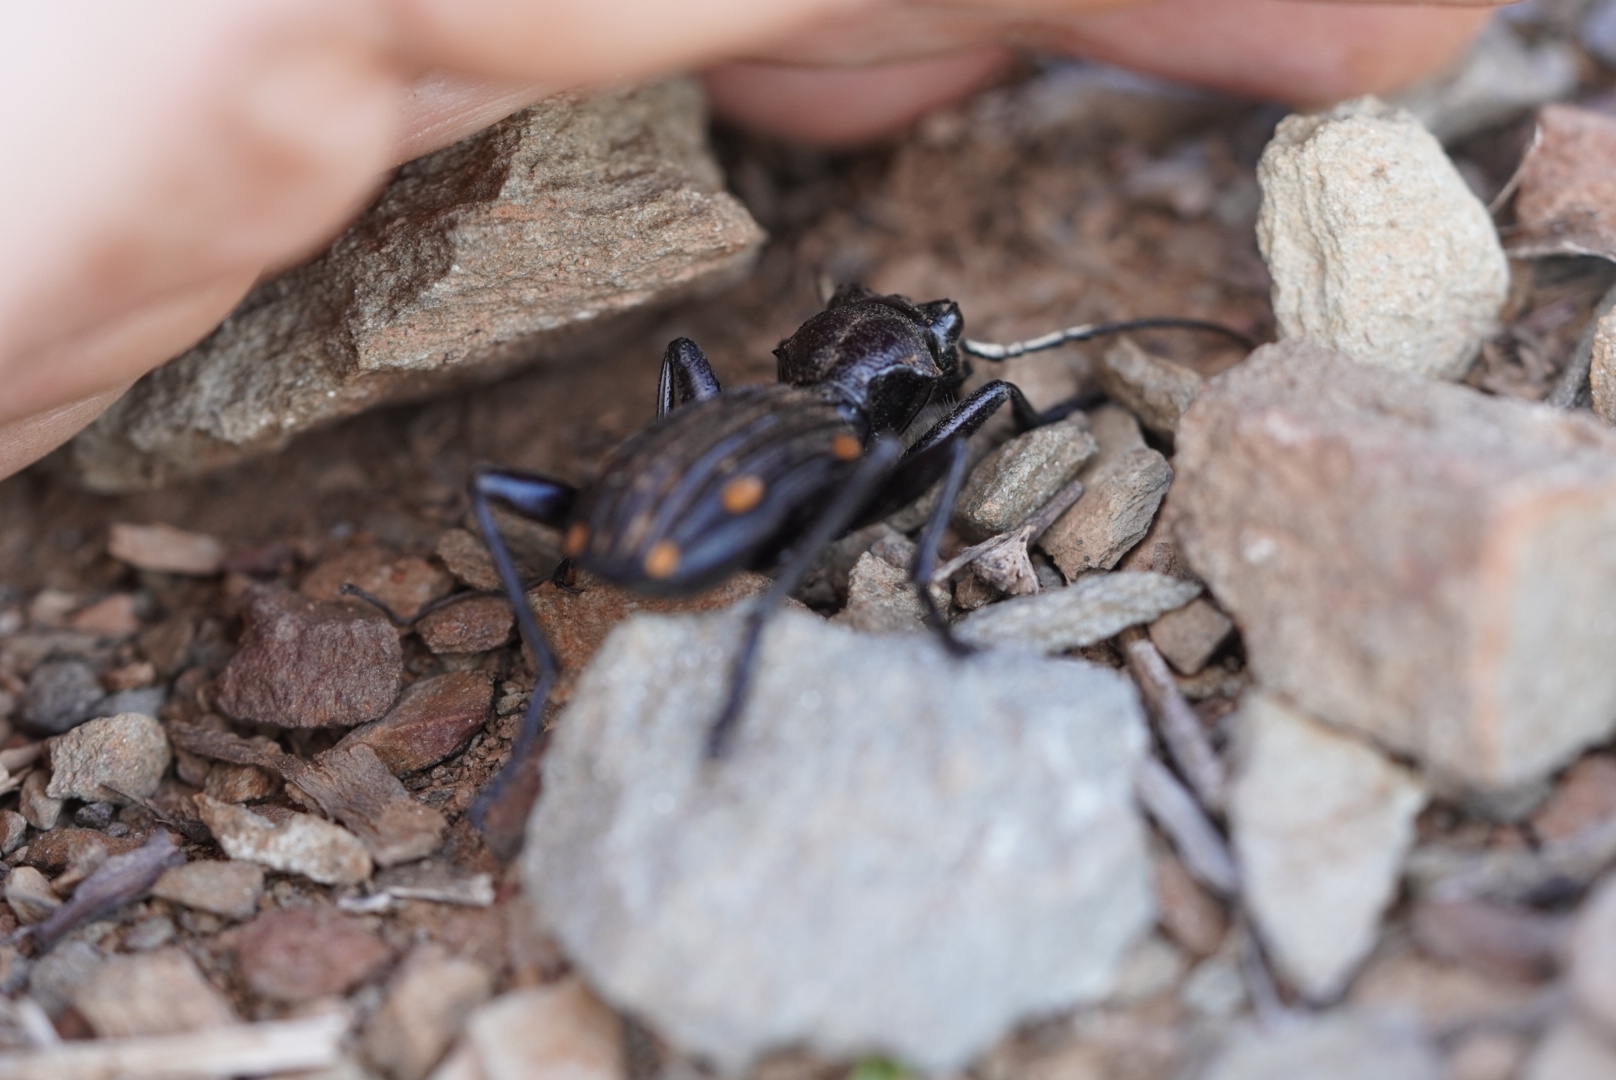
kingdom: Animalia
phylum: Arthropoda
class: Insecta
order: Coleoptera
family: Carabidae
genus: Anthia
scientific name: Anthia decemguttata
